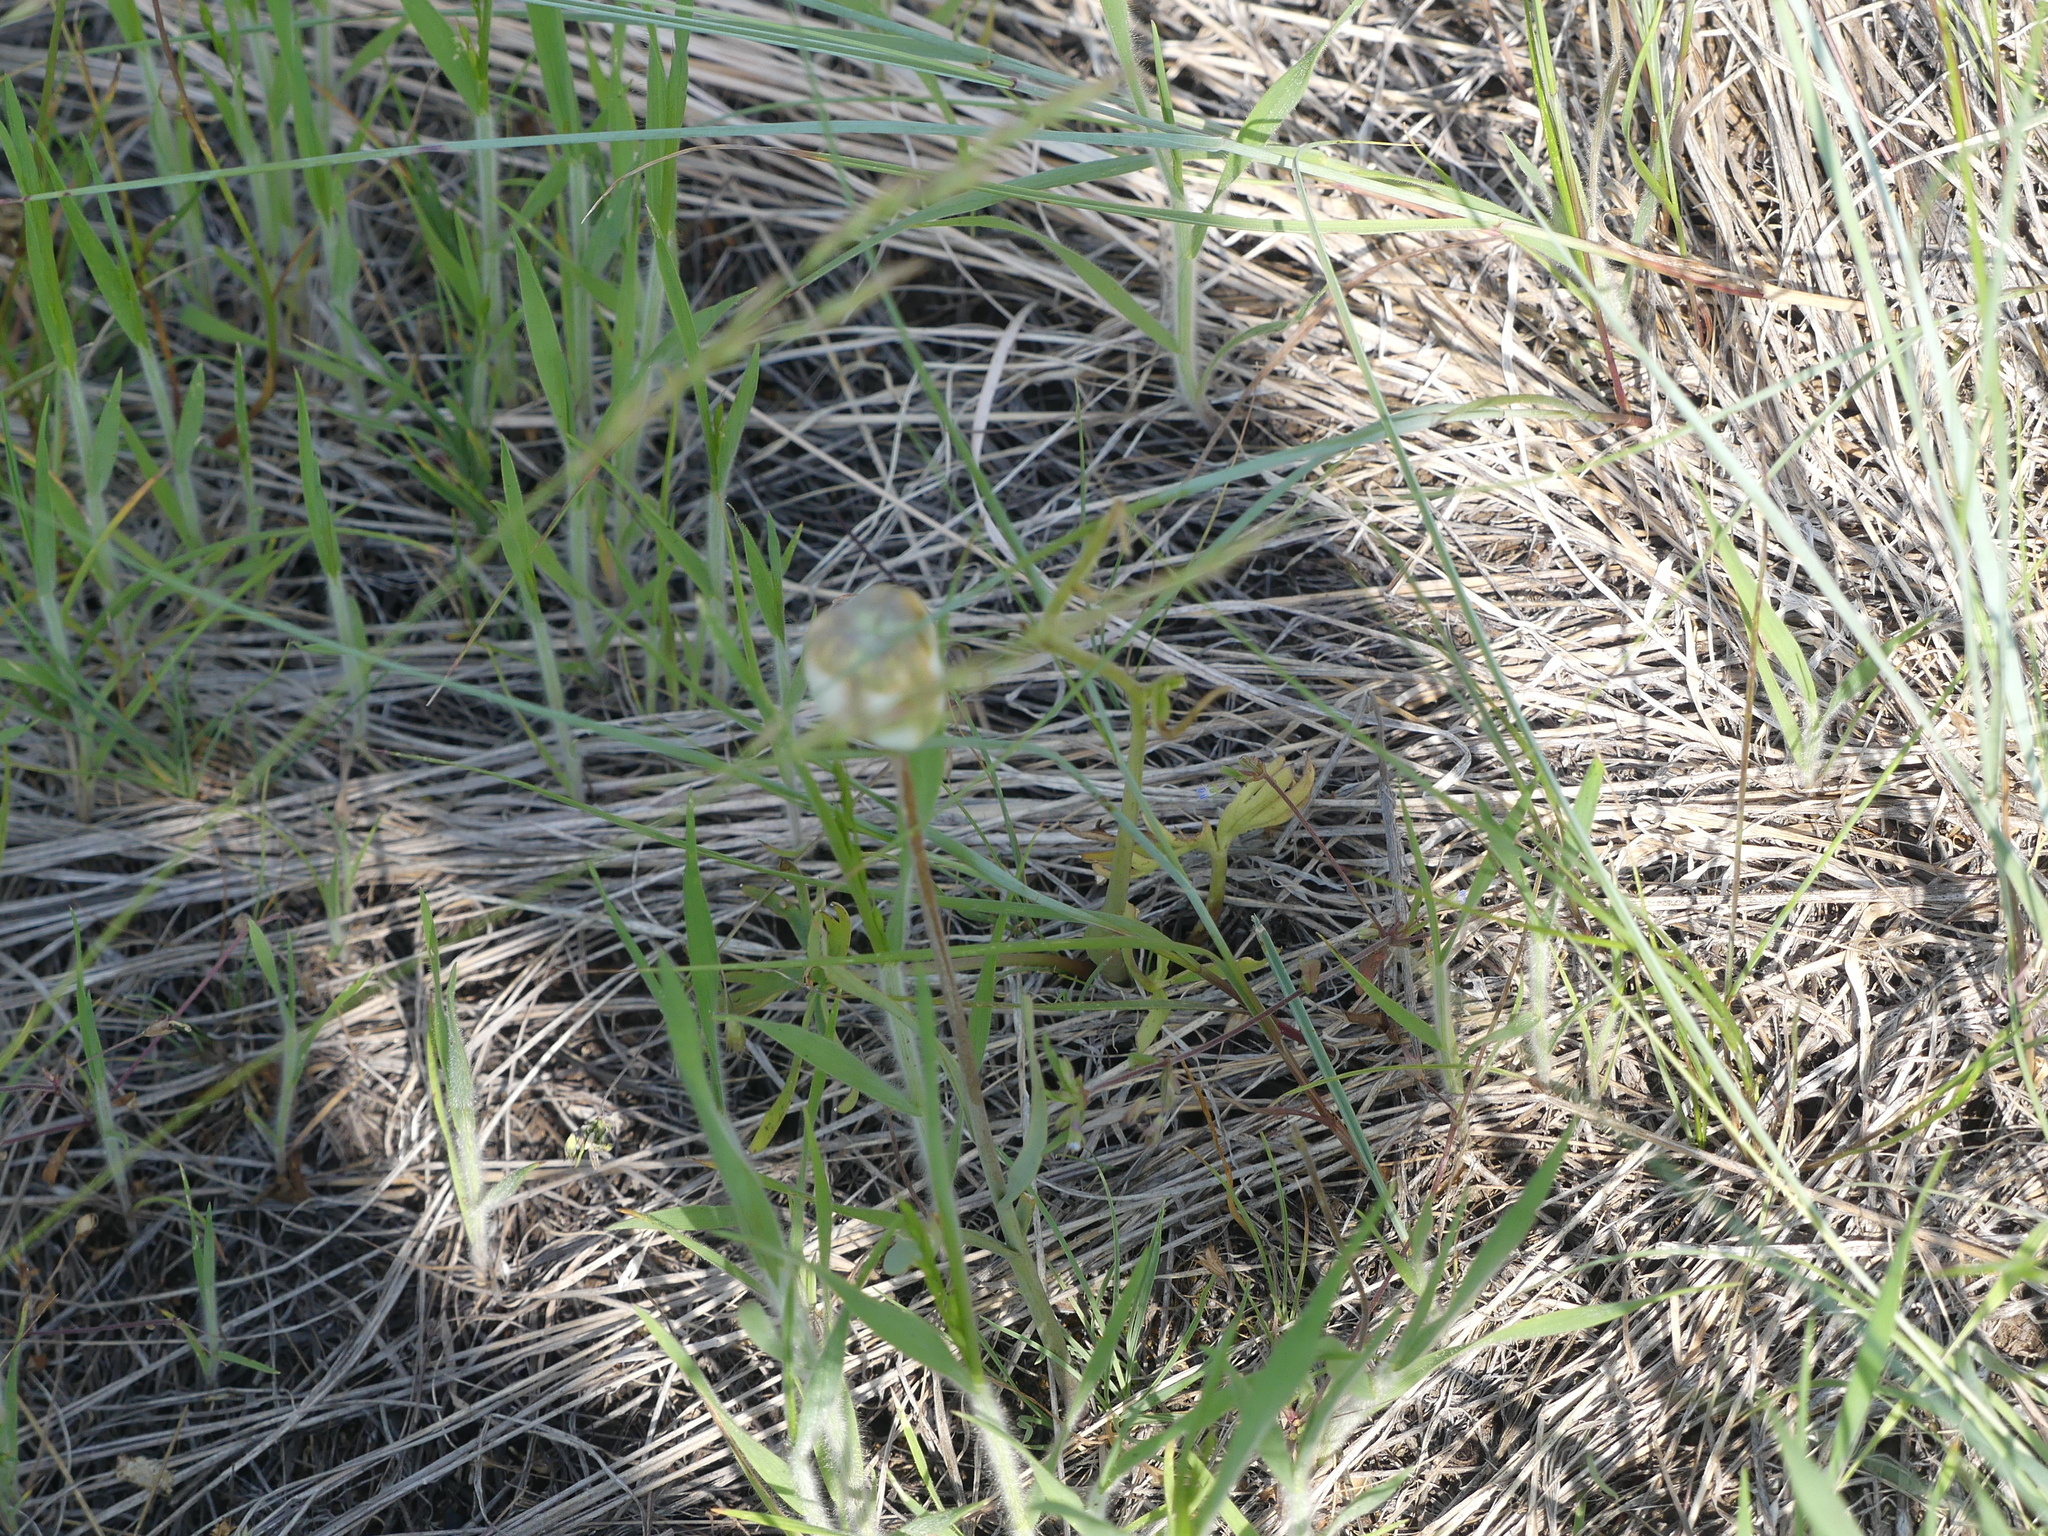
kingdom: Plantae
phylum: Tracheophyta
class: Liliopsida
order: Liliales
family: Liliaceae
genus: Fritillaria
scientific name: Fritillaria pudica
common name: Yellow fritillary
